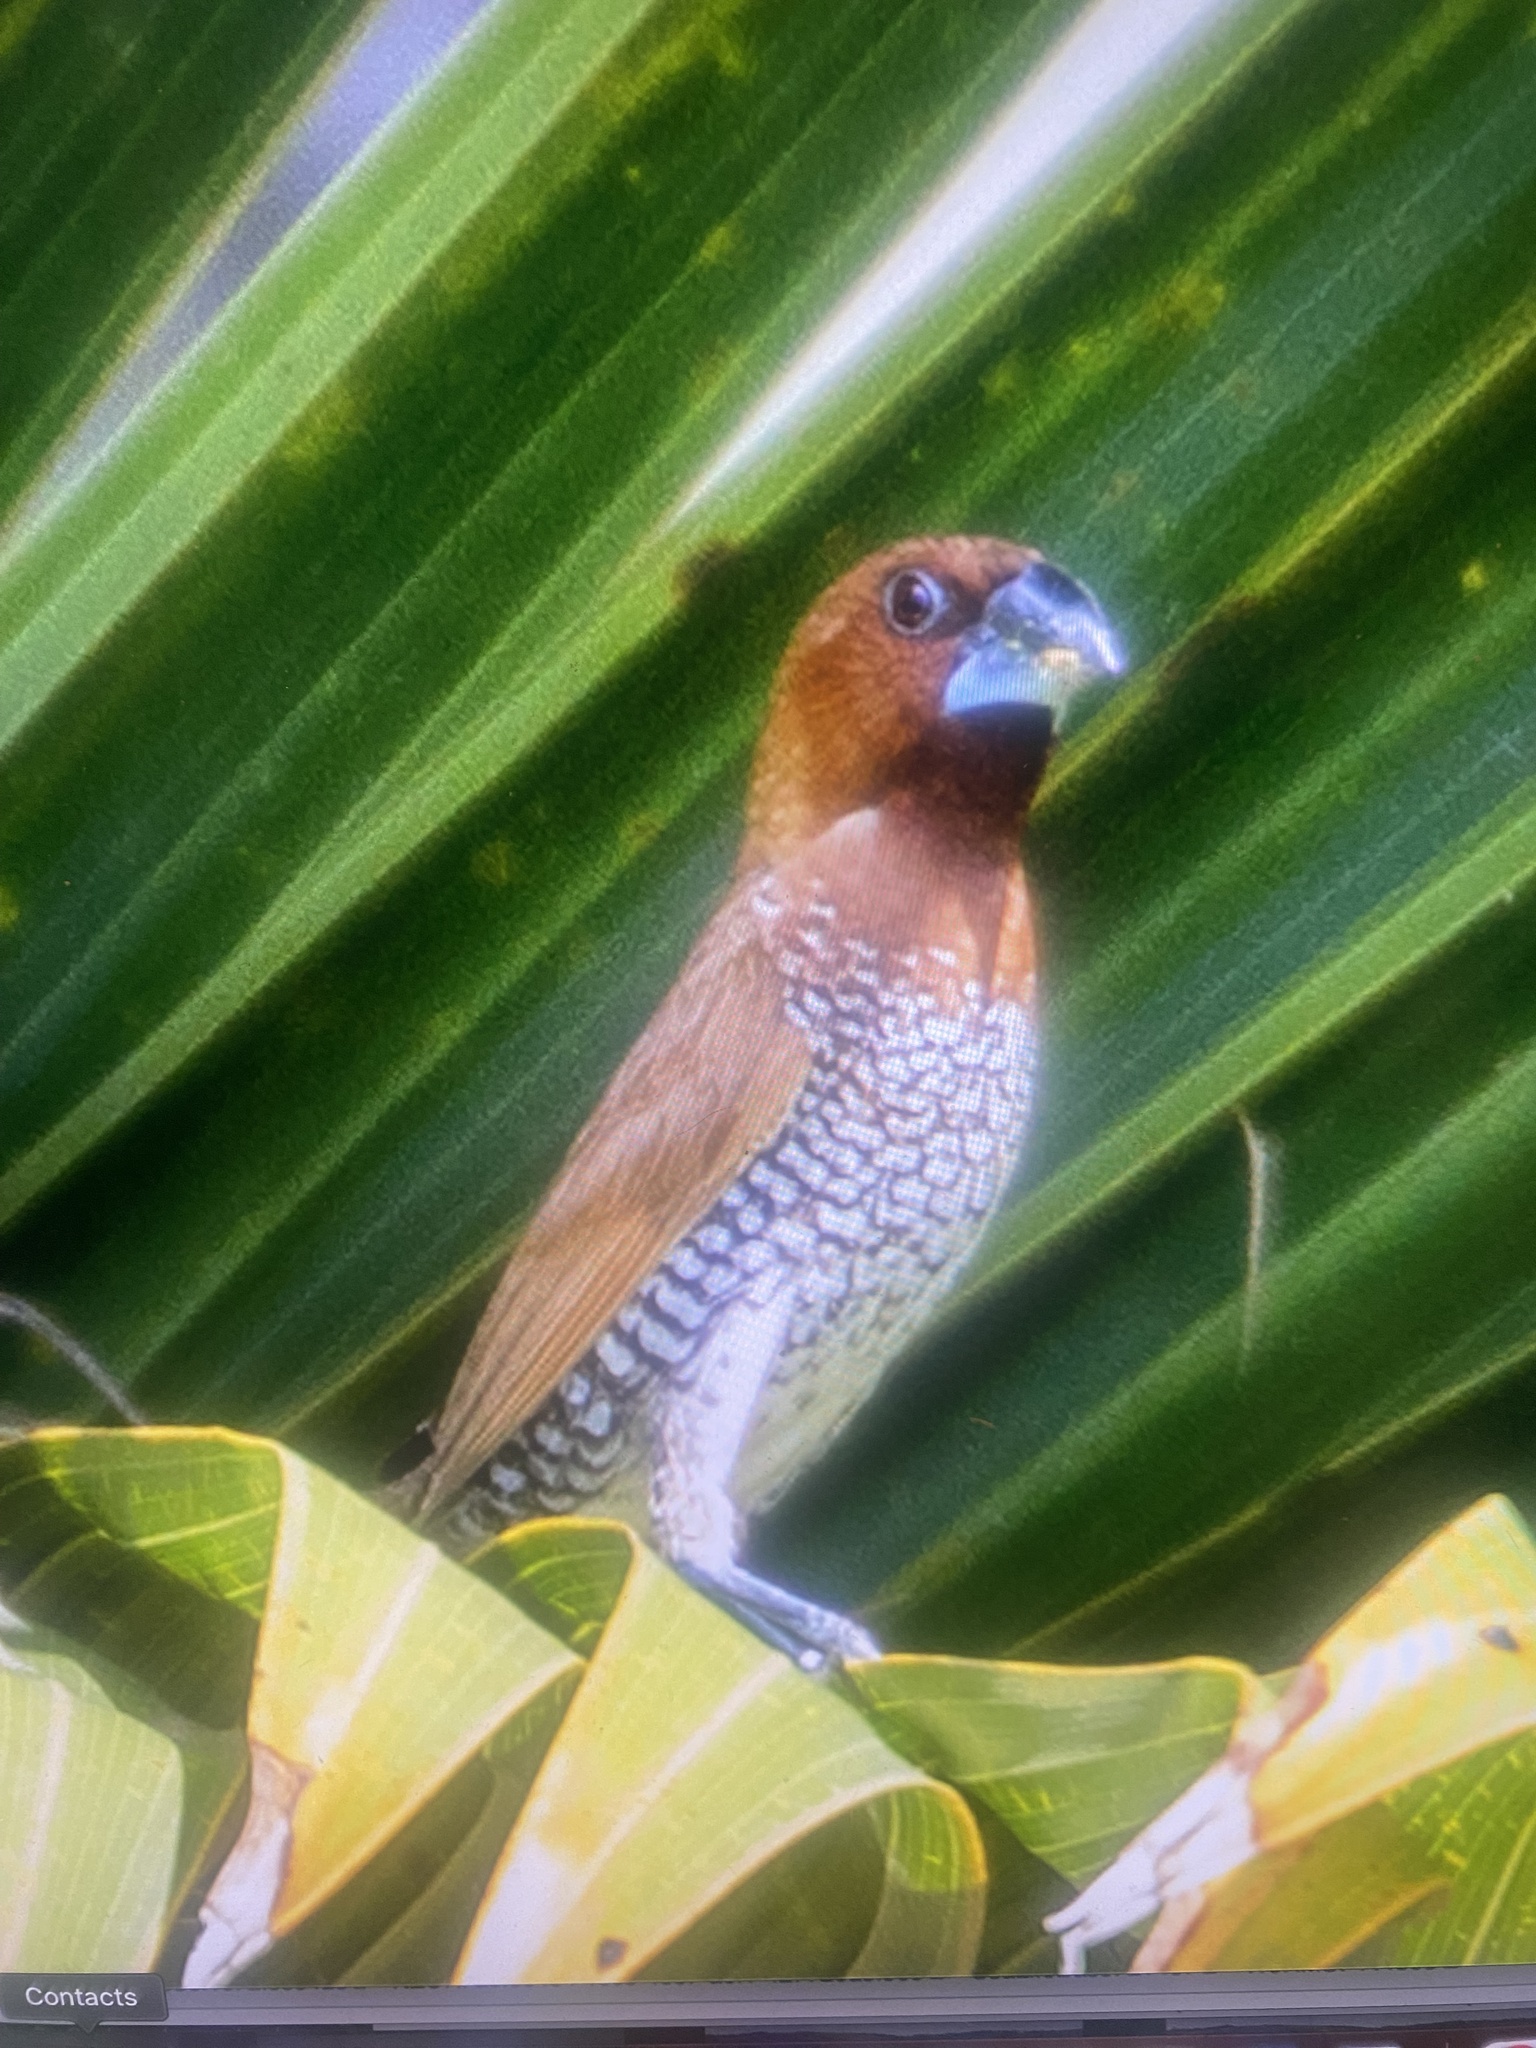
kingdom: Animalia
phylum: Chordata
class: Aves
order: Passeriformes
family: Estrildidae
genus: Lonchura
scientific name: Lonchura punctulata
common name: Scaly-breasted munia
